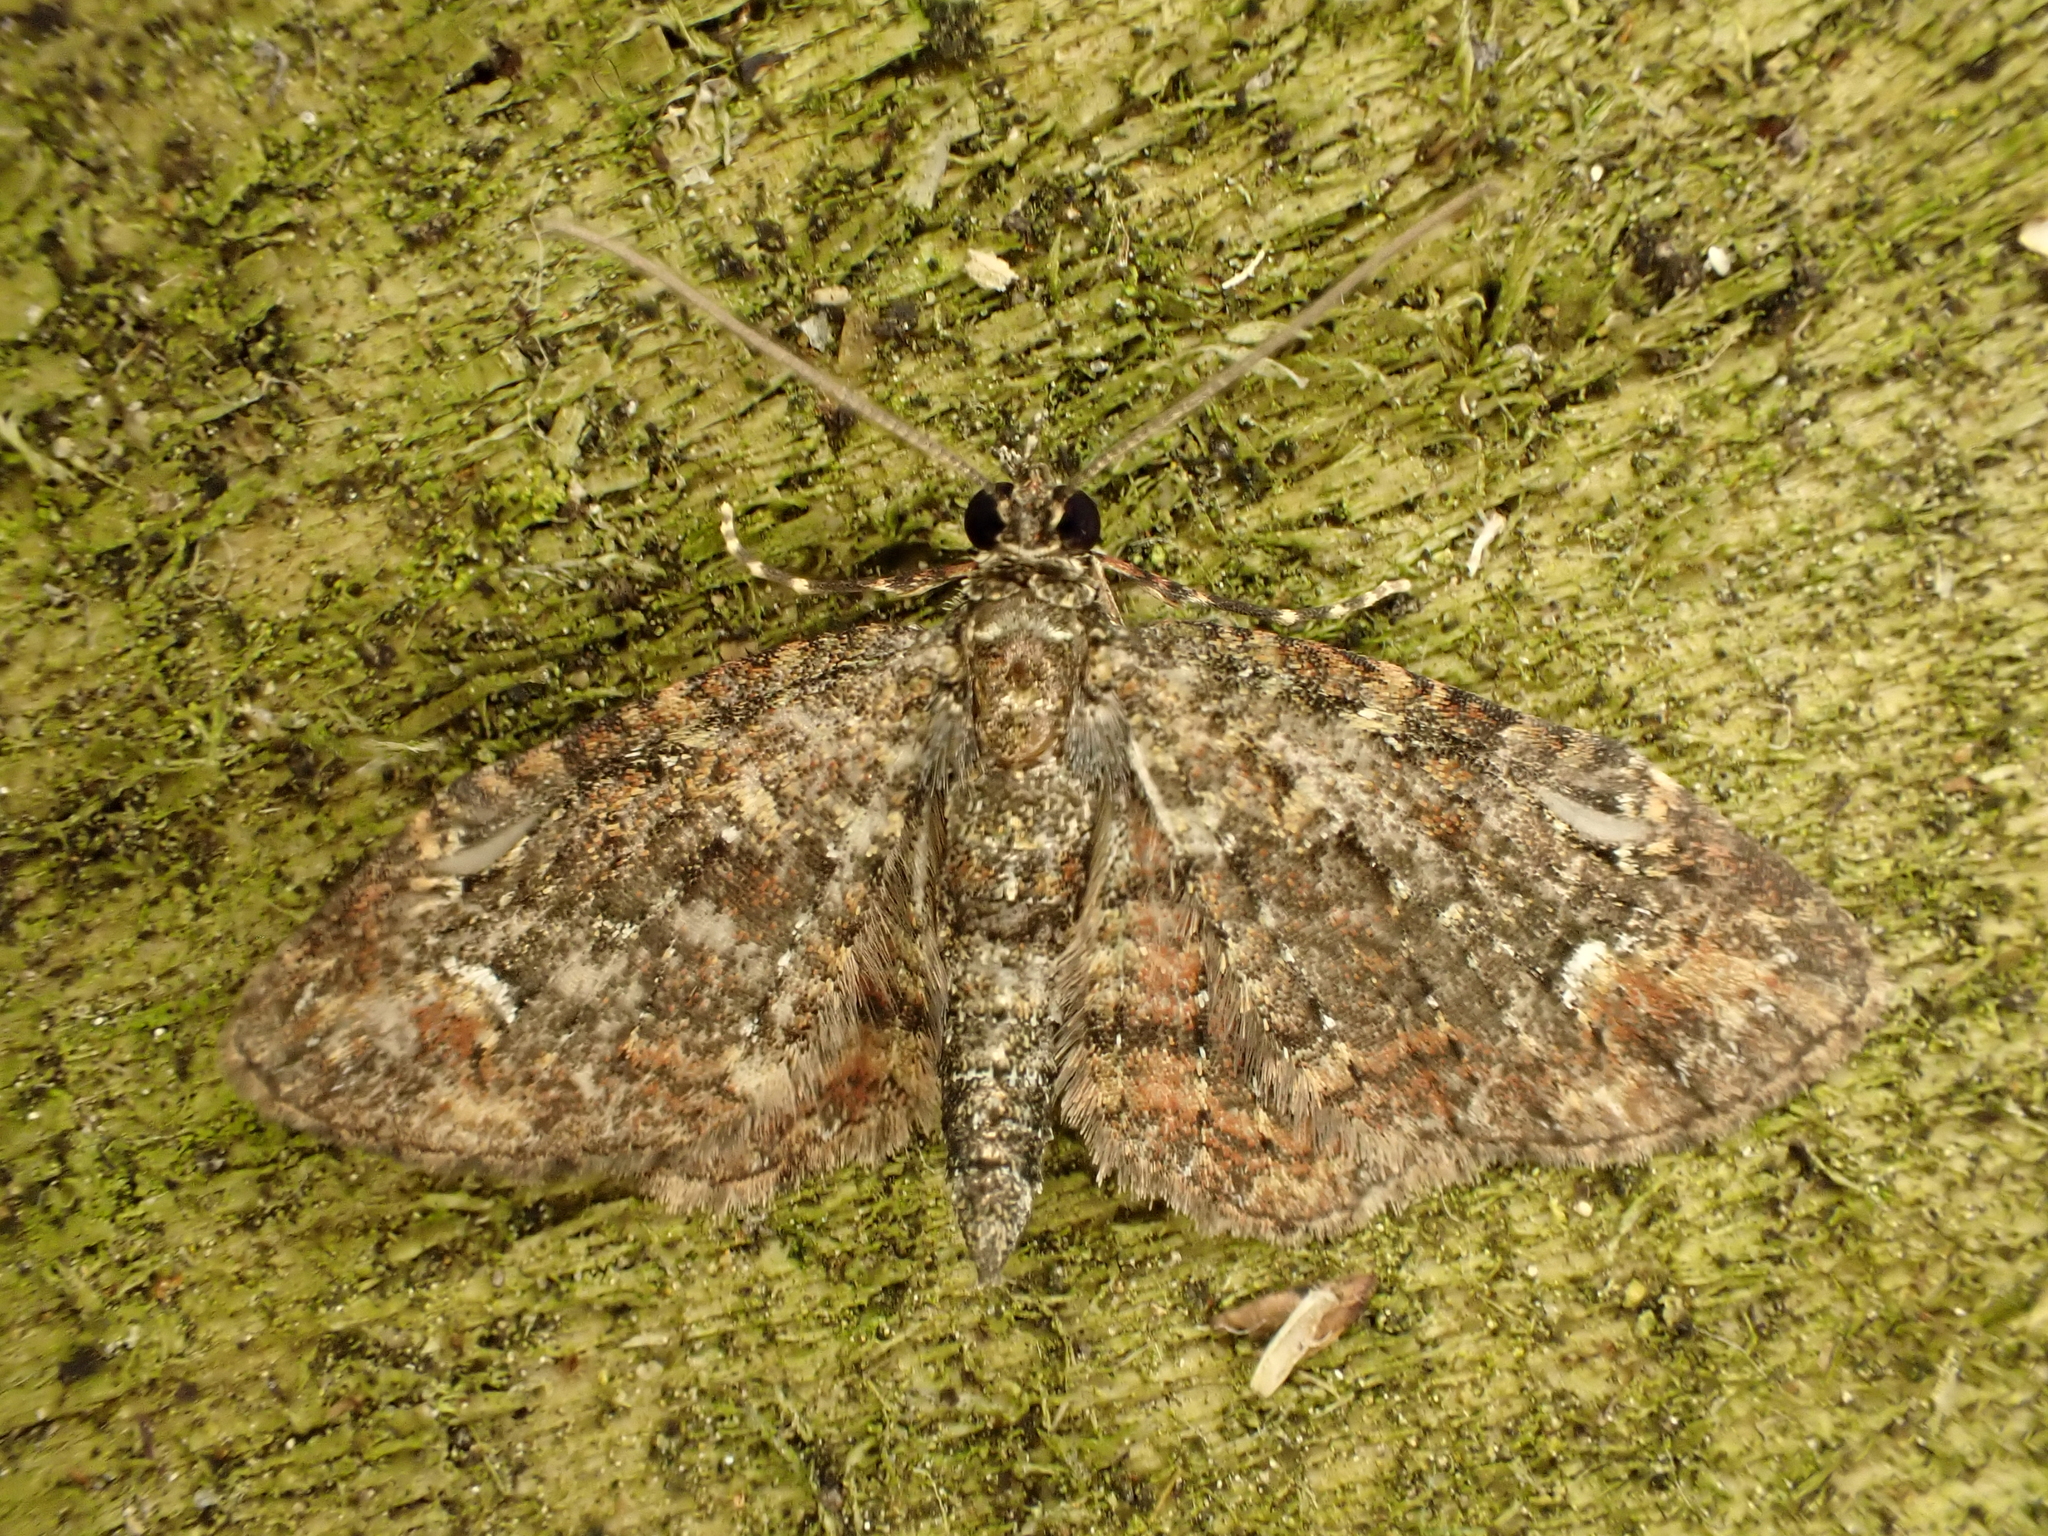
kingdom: Animalia
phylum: Arthropoda
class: Insecta
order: Lepidoptera
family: Geometridae
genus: Pasiphilodes
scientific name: Pasiphilodes testulata
